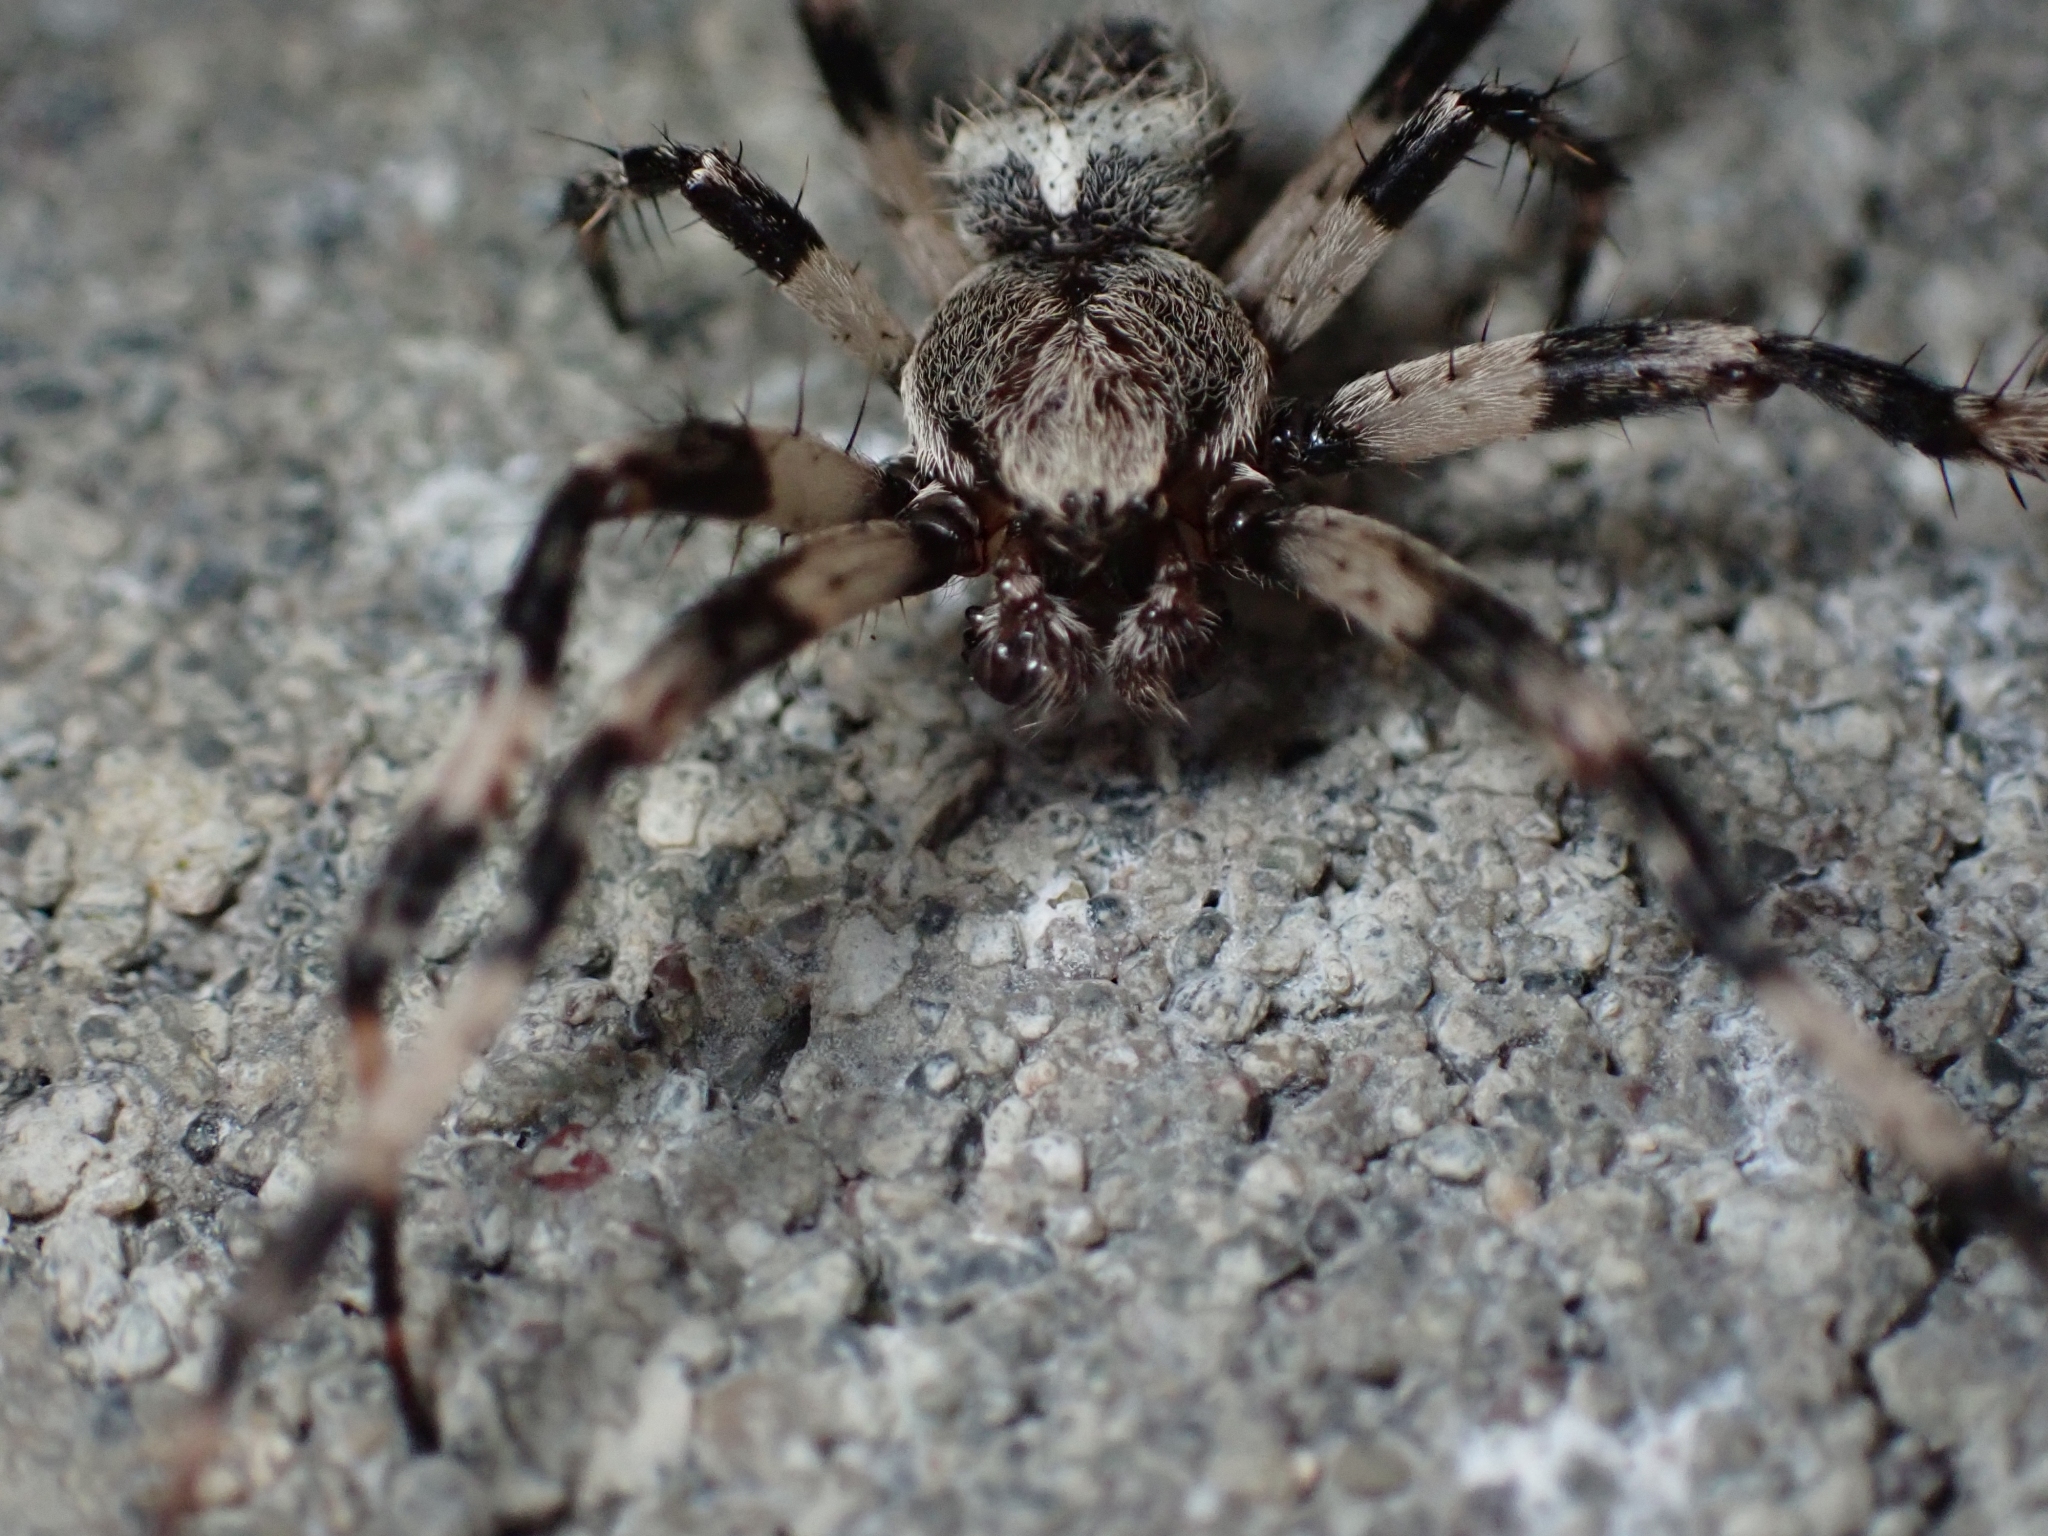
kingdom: Animalia
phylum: Arthropoda
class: Arachnida
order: Araneae
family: Araneidae
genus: Araneus
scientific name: Araneus nordmanni
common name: Nordmann's orbweaver
